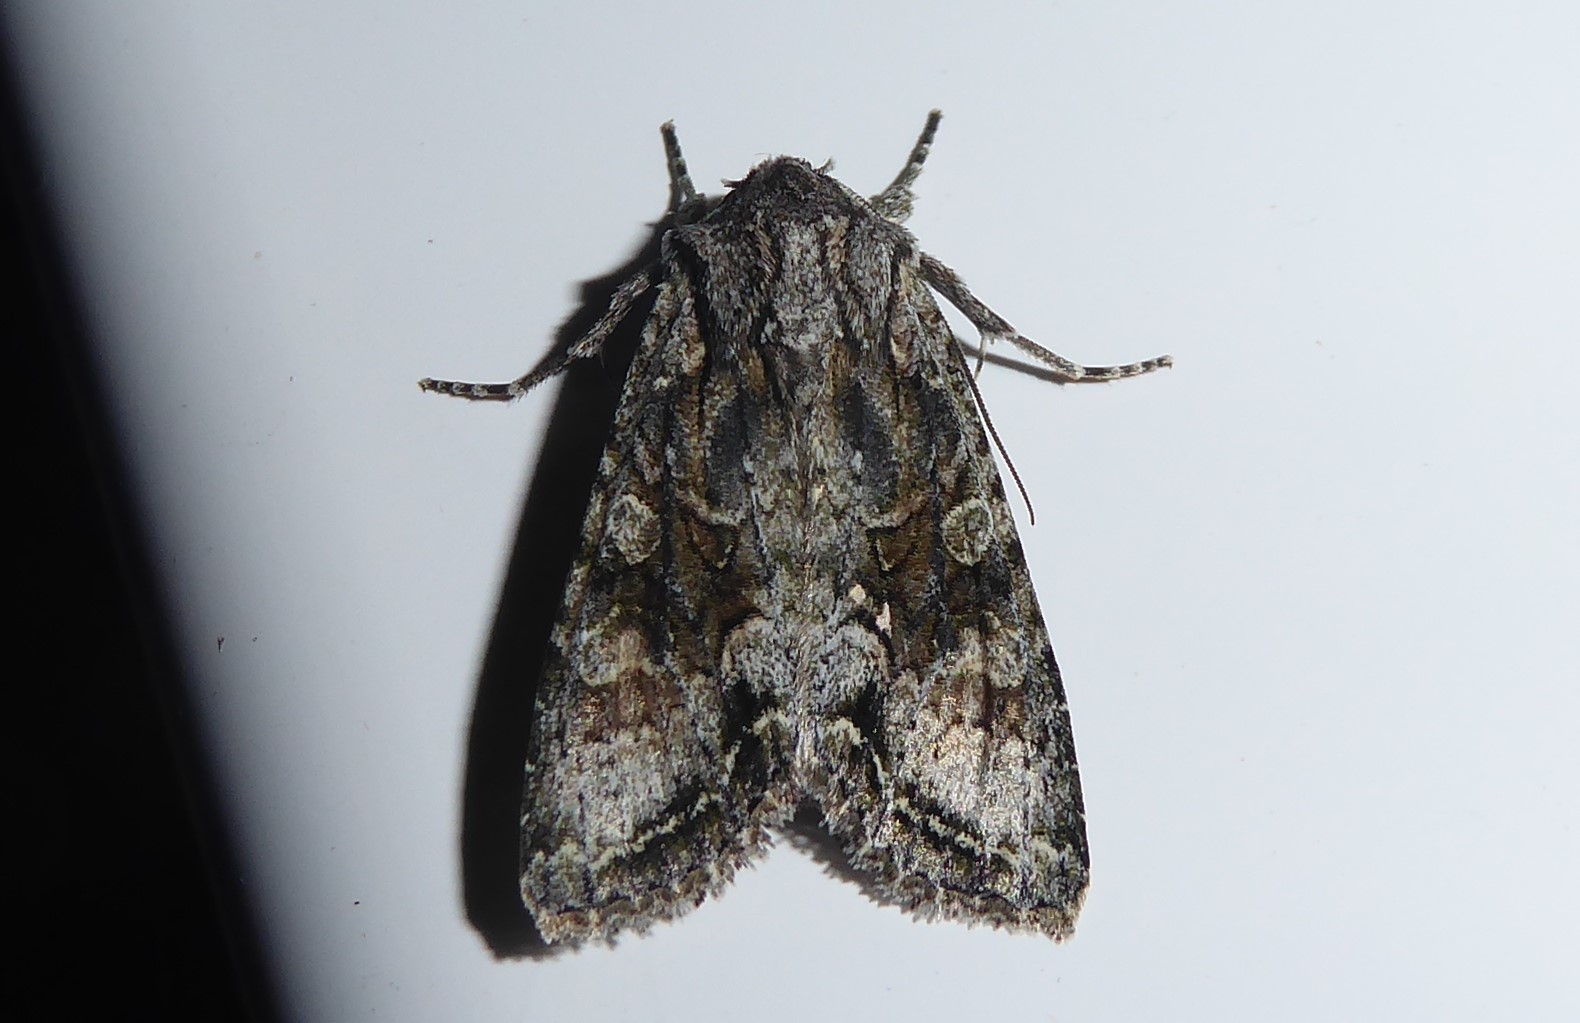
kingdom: Animalia
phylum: Arthropoda
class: Insecta
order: Lepidoptera
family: Noctuidae
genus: Ichneutica
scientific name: Ichneutica mutans
